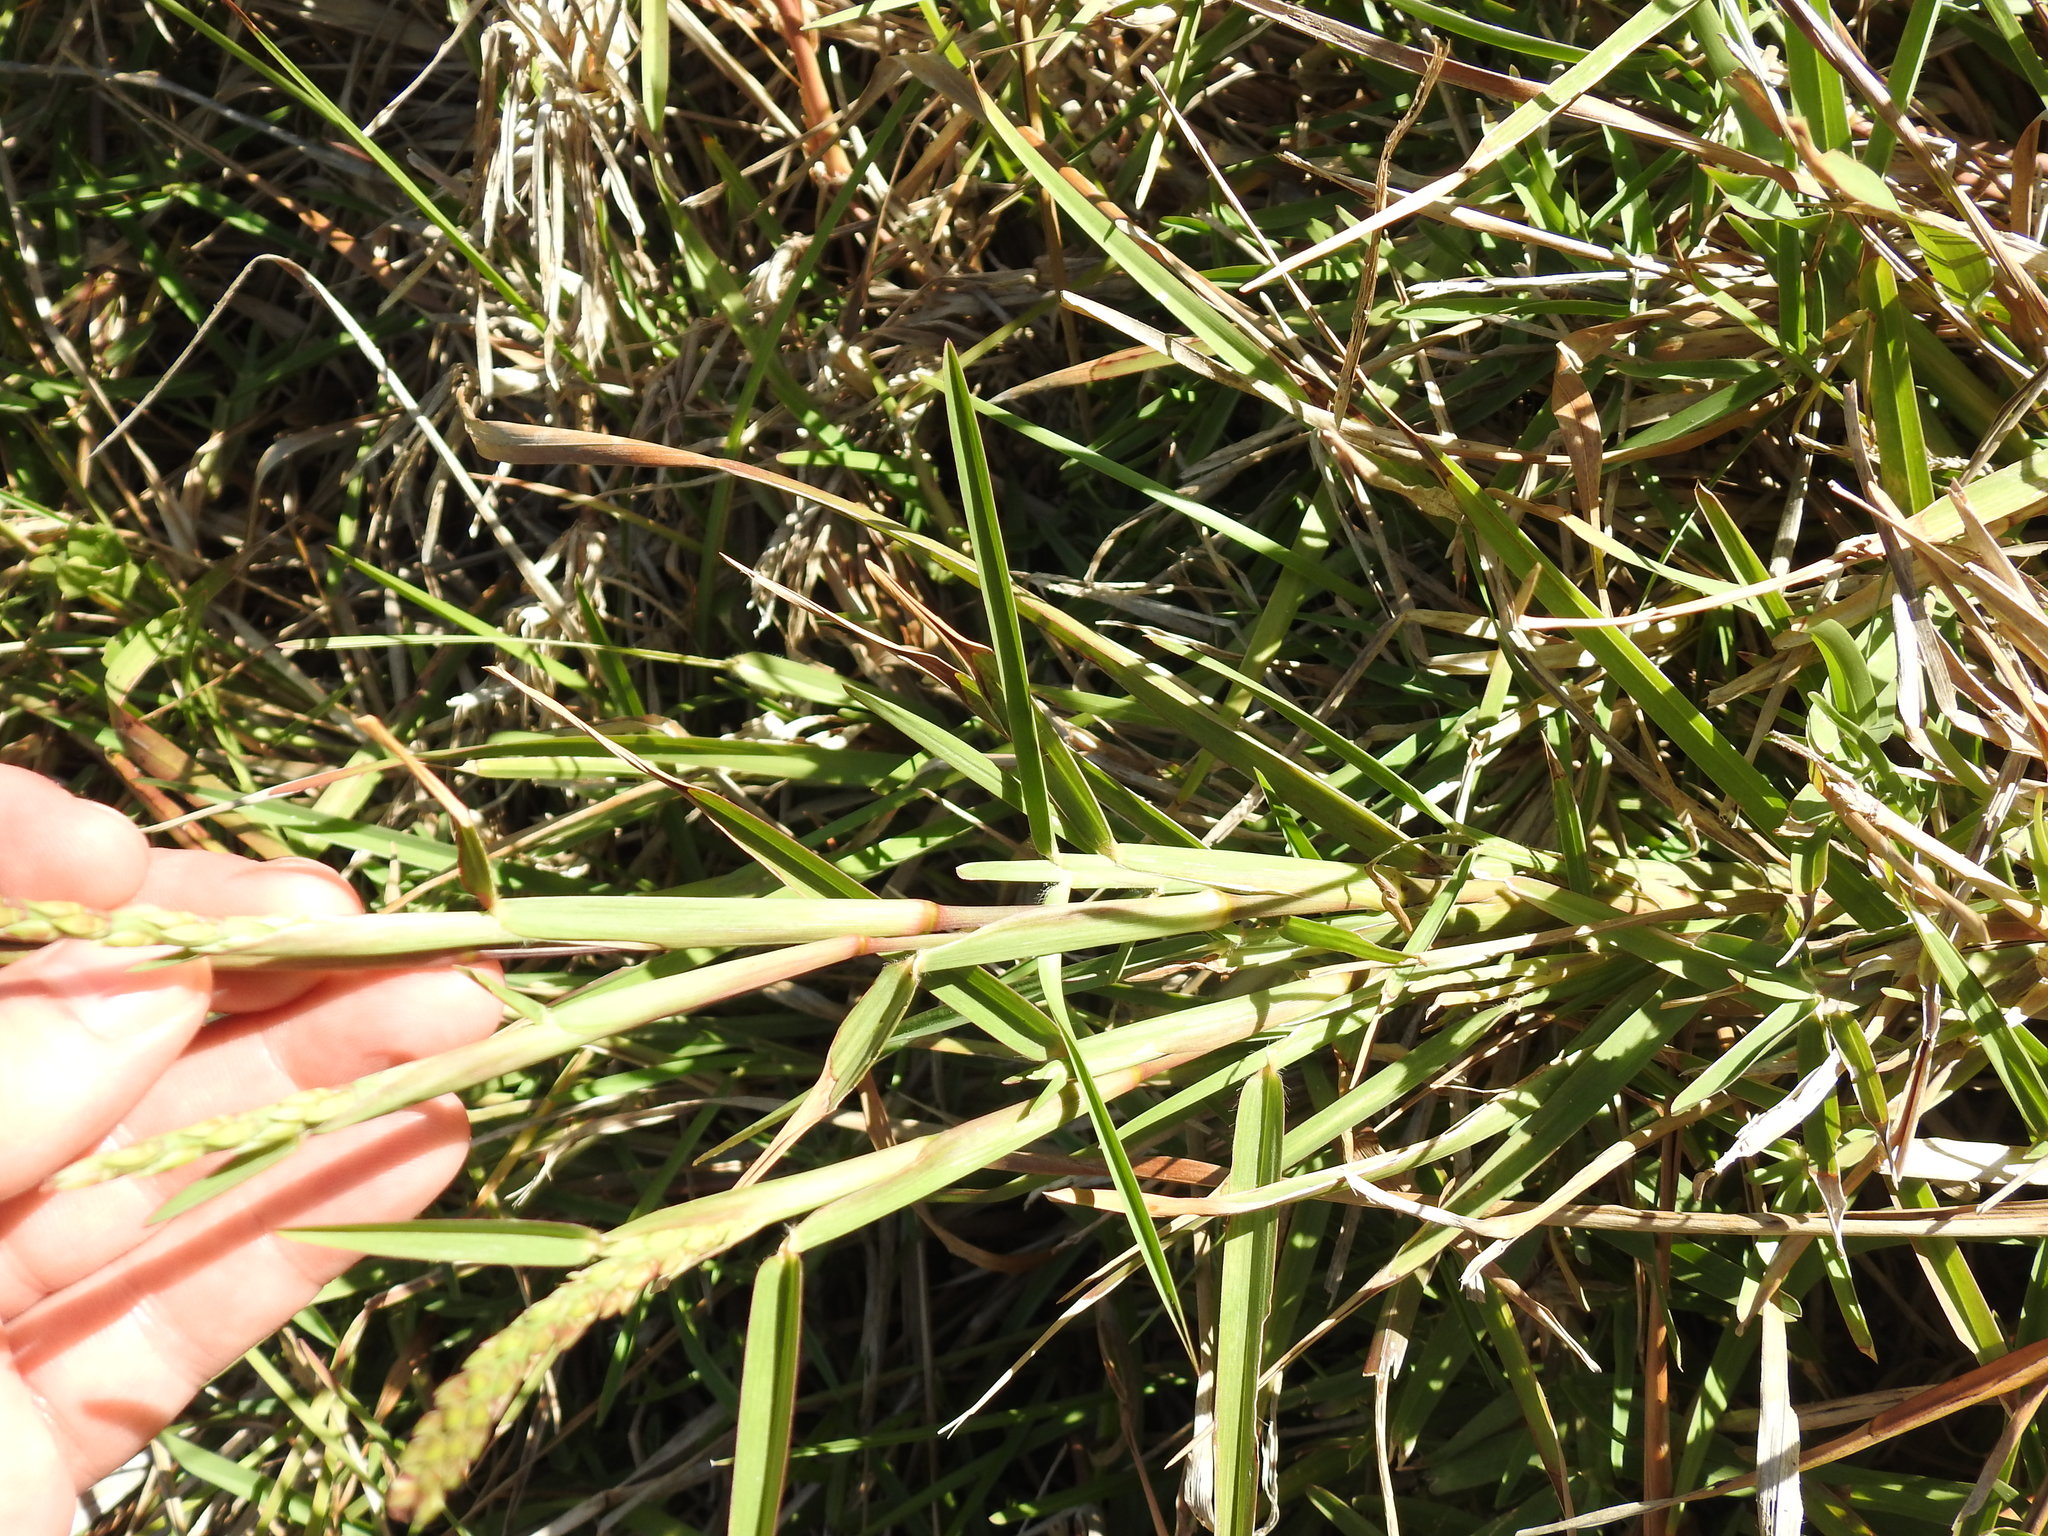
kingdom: Plantae
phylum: Tracheophyta
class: Liliopsida
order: Poales
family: Poaceae
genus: Stenotaphrum
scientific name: Stenotaphrum secundatum
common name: St. augustine grass
